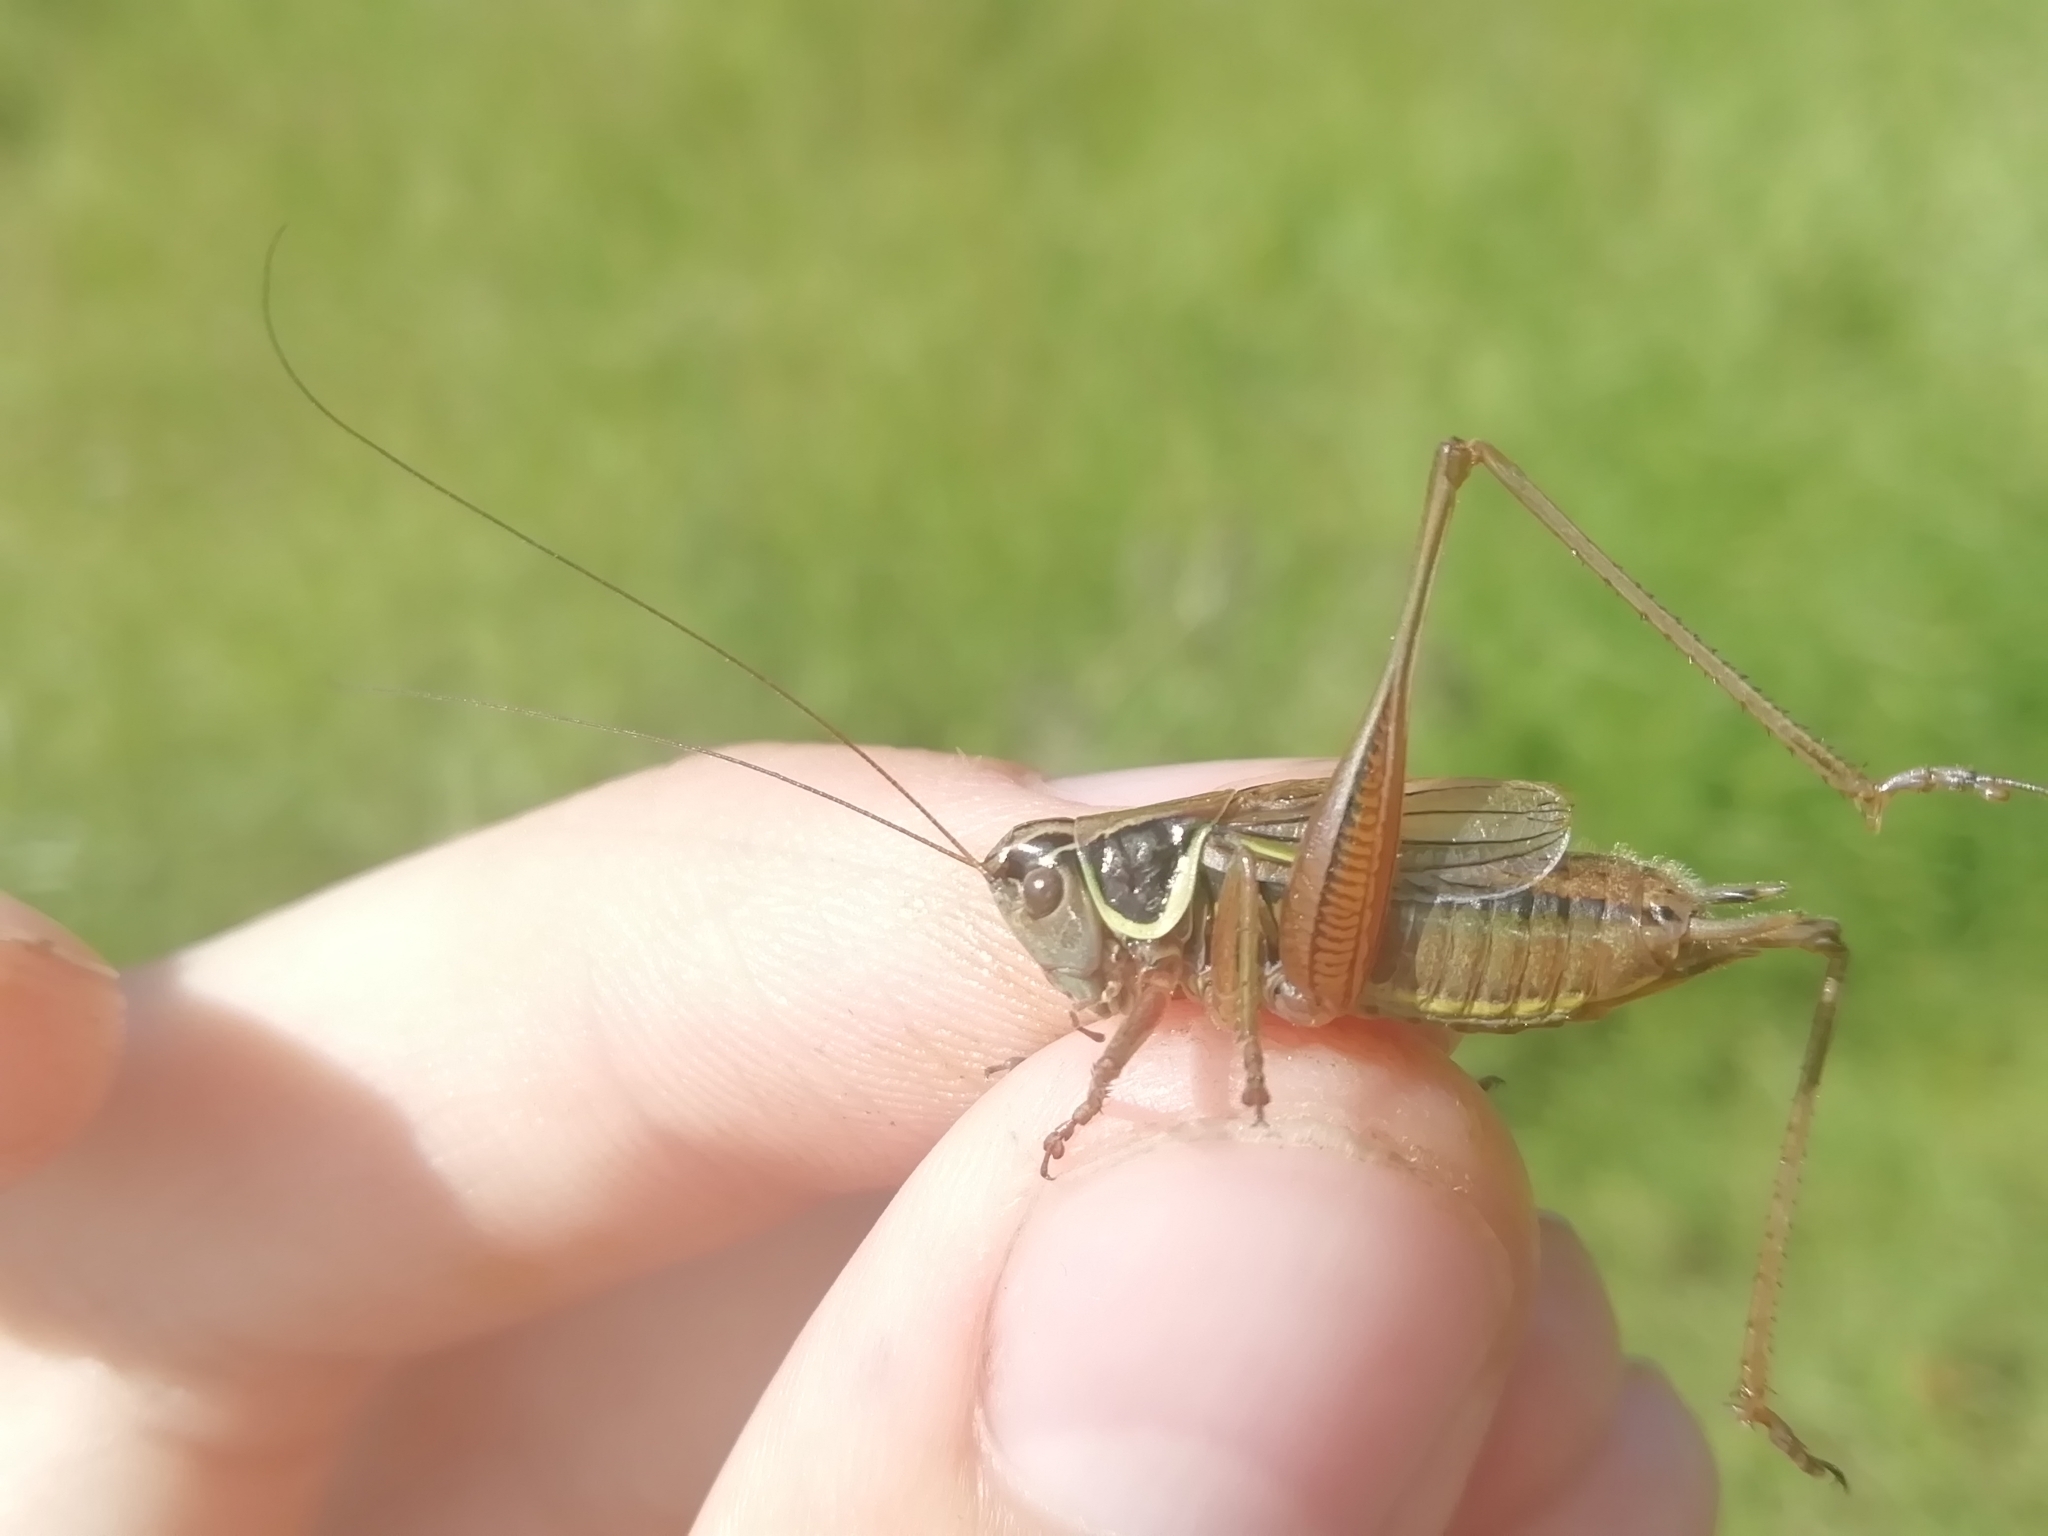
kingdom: Animalia
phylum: Arthropoda
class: Insecta
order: Orthoptera
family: Tettigoniidae
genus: Roeseliana
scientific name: Roeseliana roeselii
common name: Roesel's bush cricket
